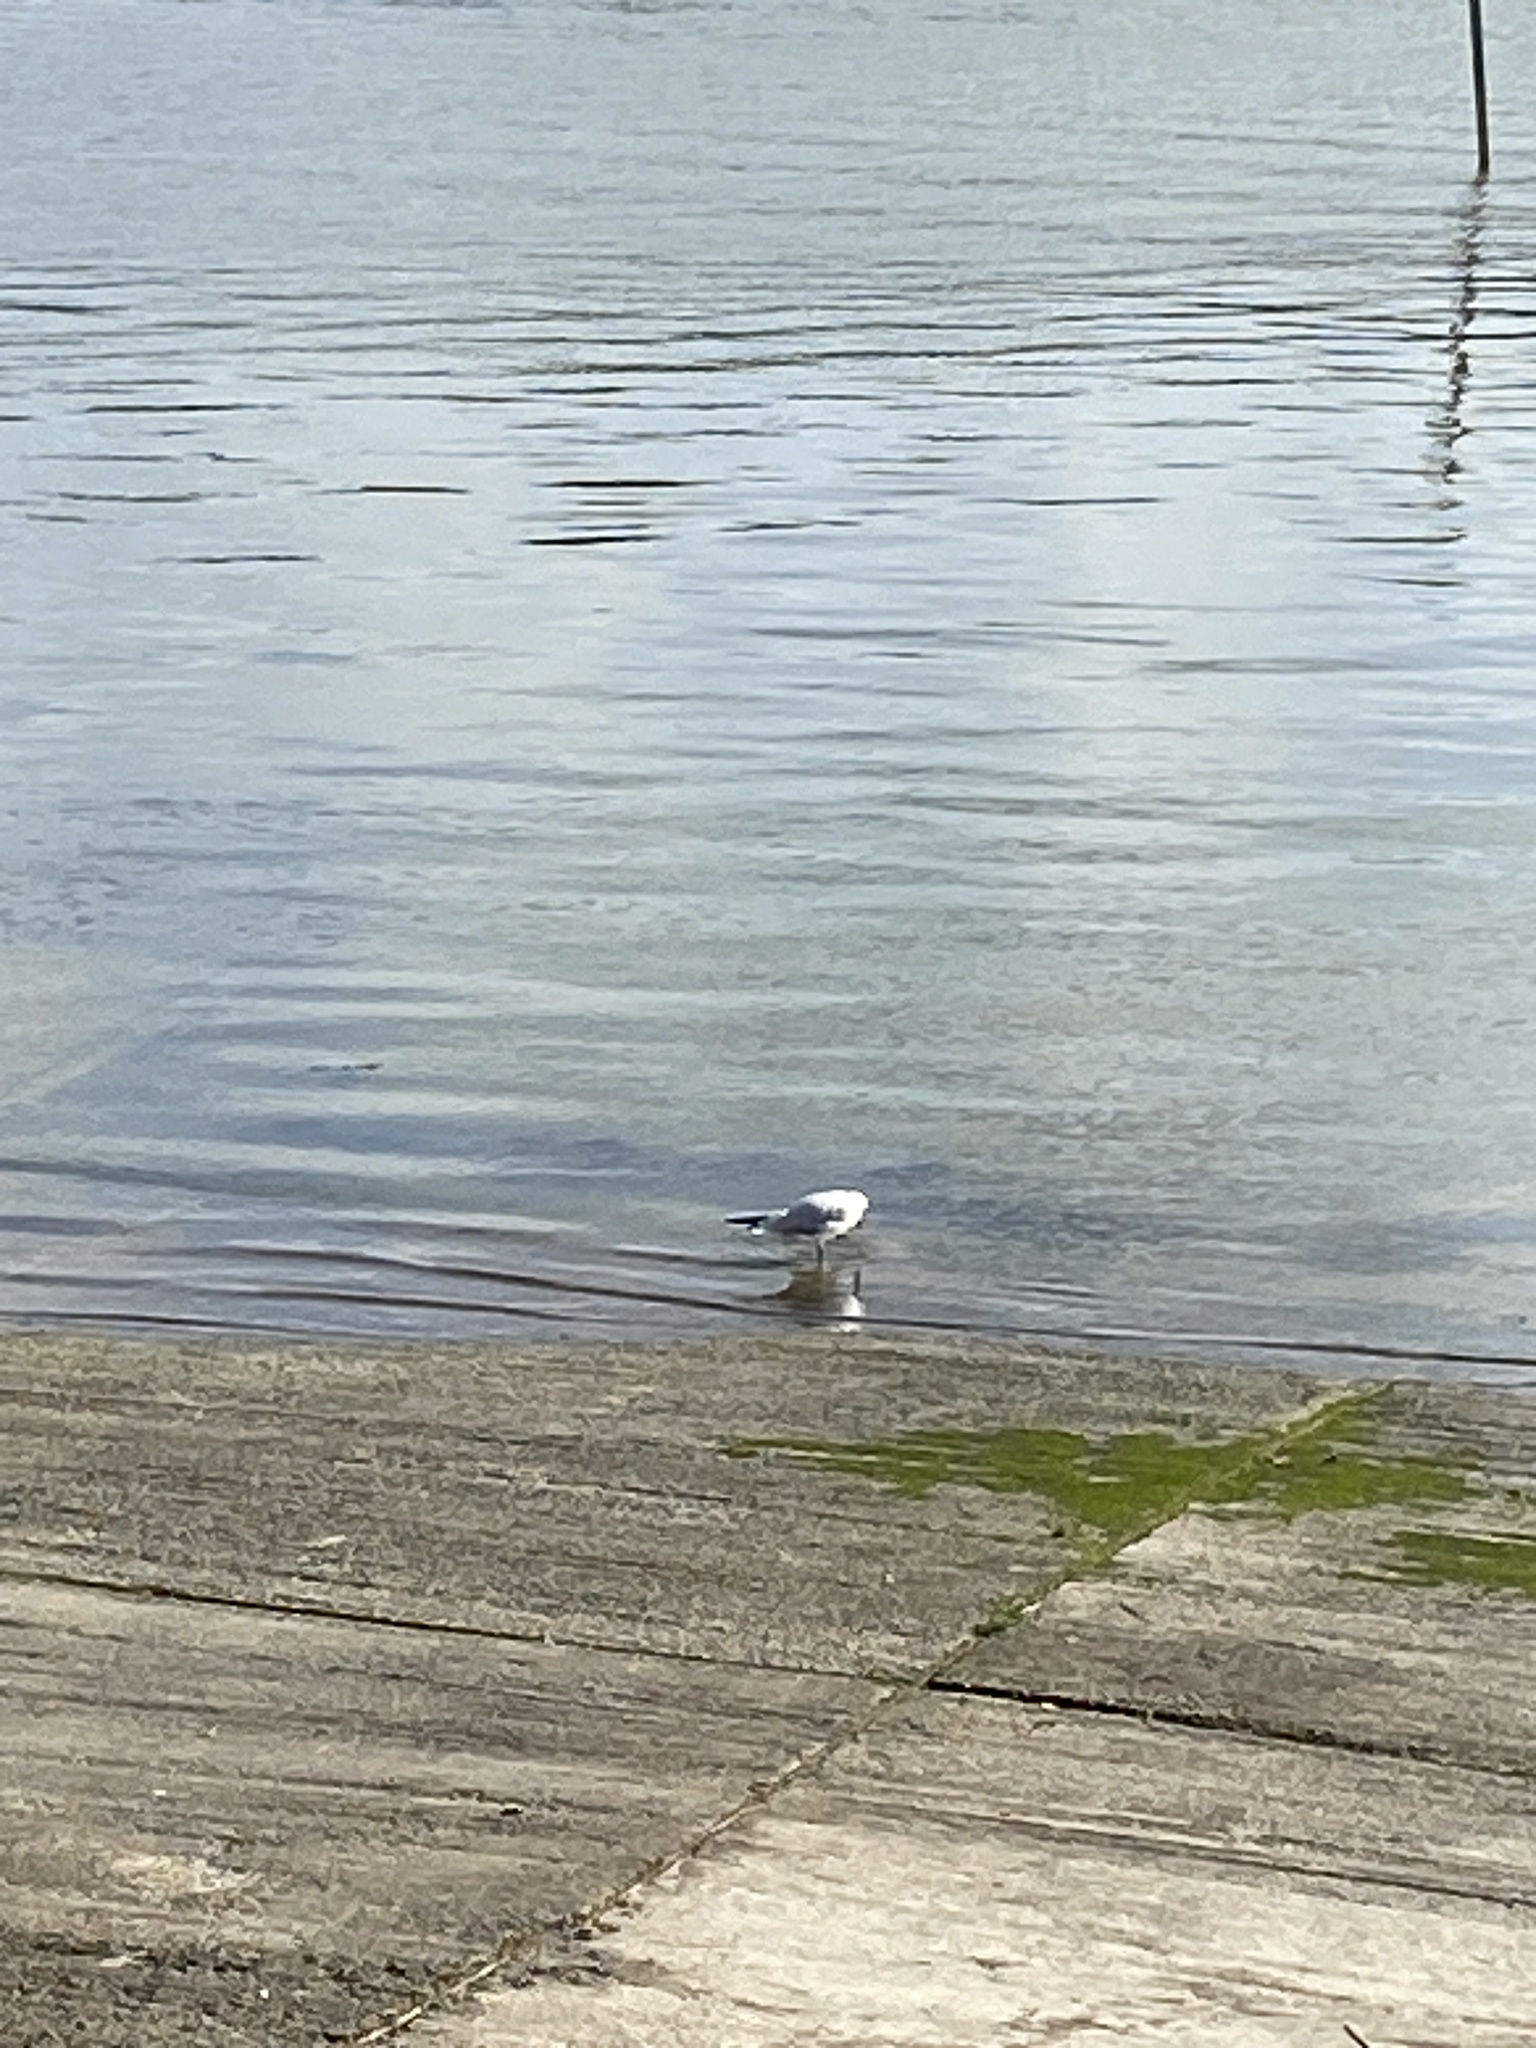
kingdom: Animalia
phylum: Chordata
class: Aves
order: Charadriiformes
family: Laridae
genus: Chroicocephalus
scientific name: Chroicocephalus ridibundus
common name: Black-headed gull
